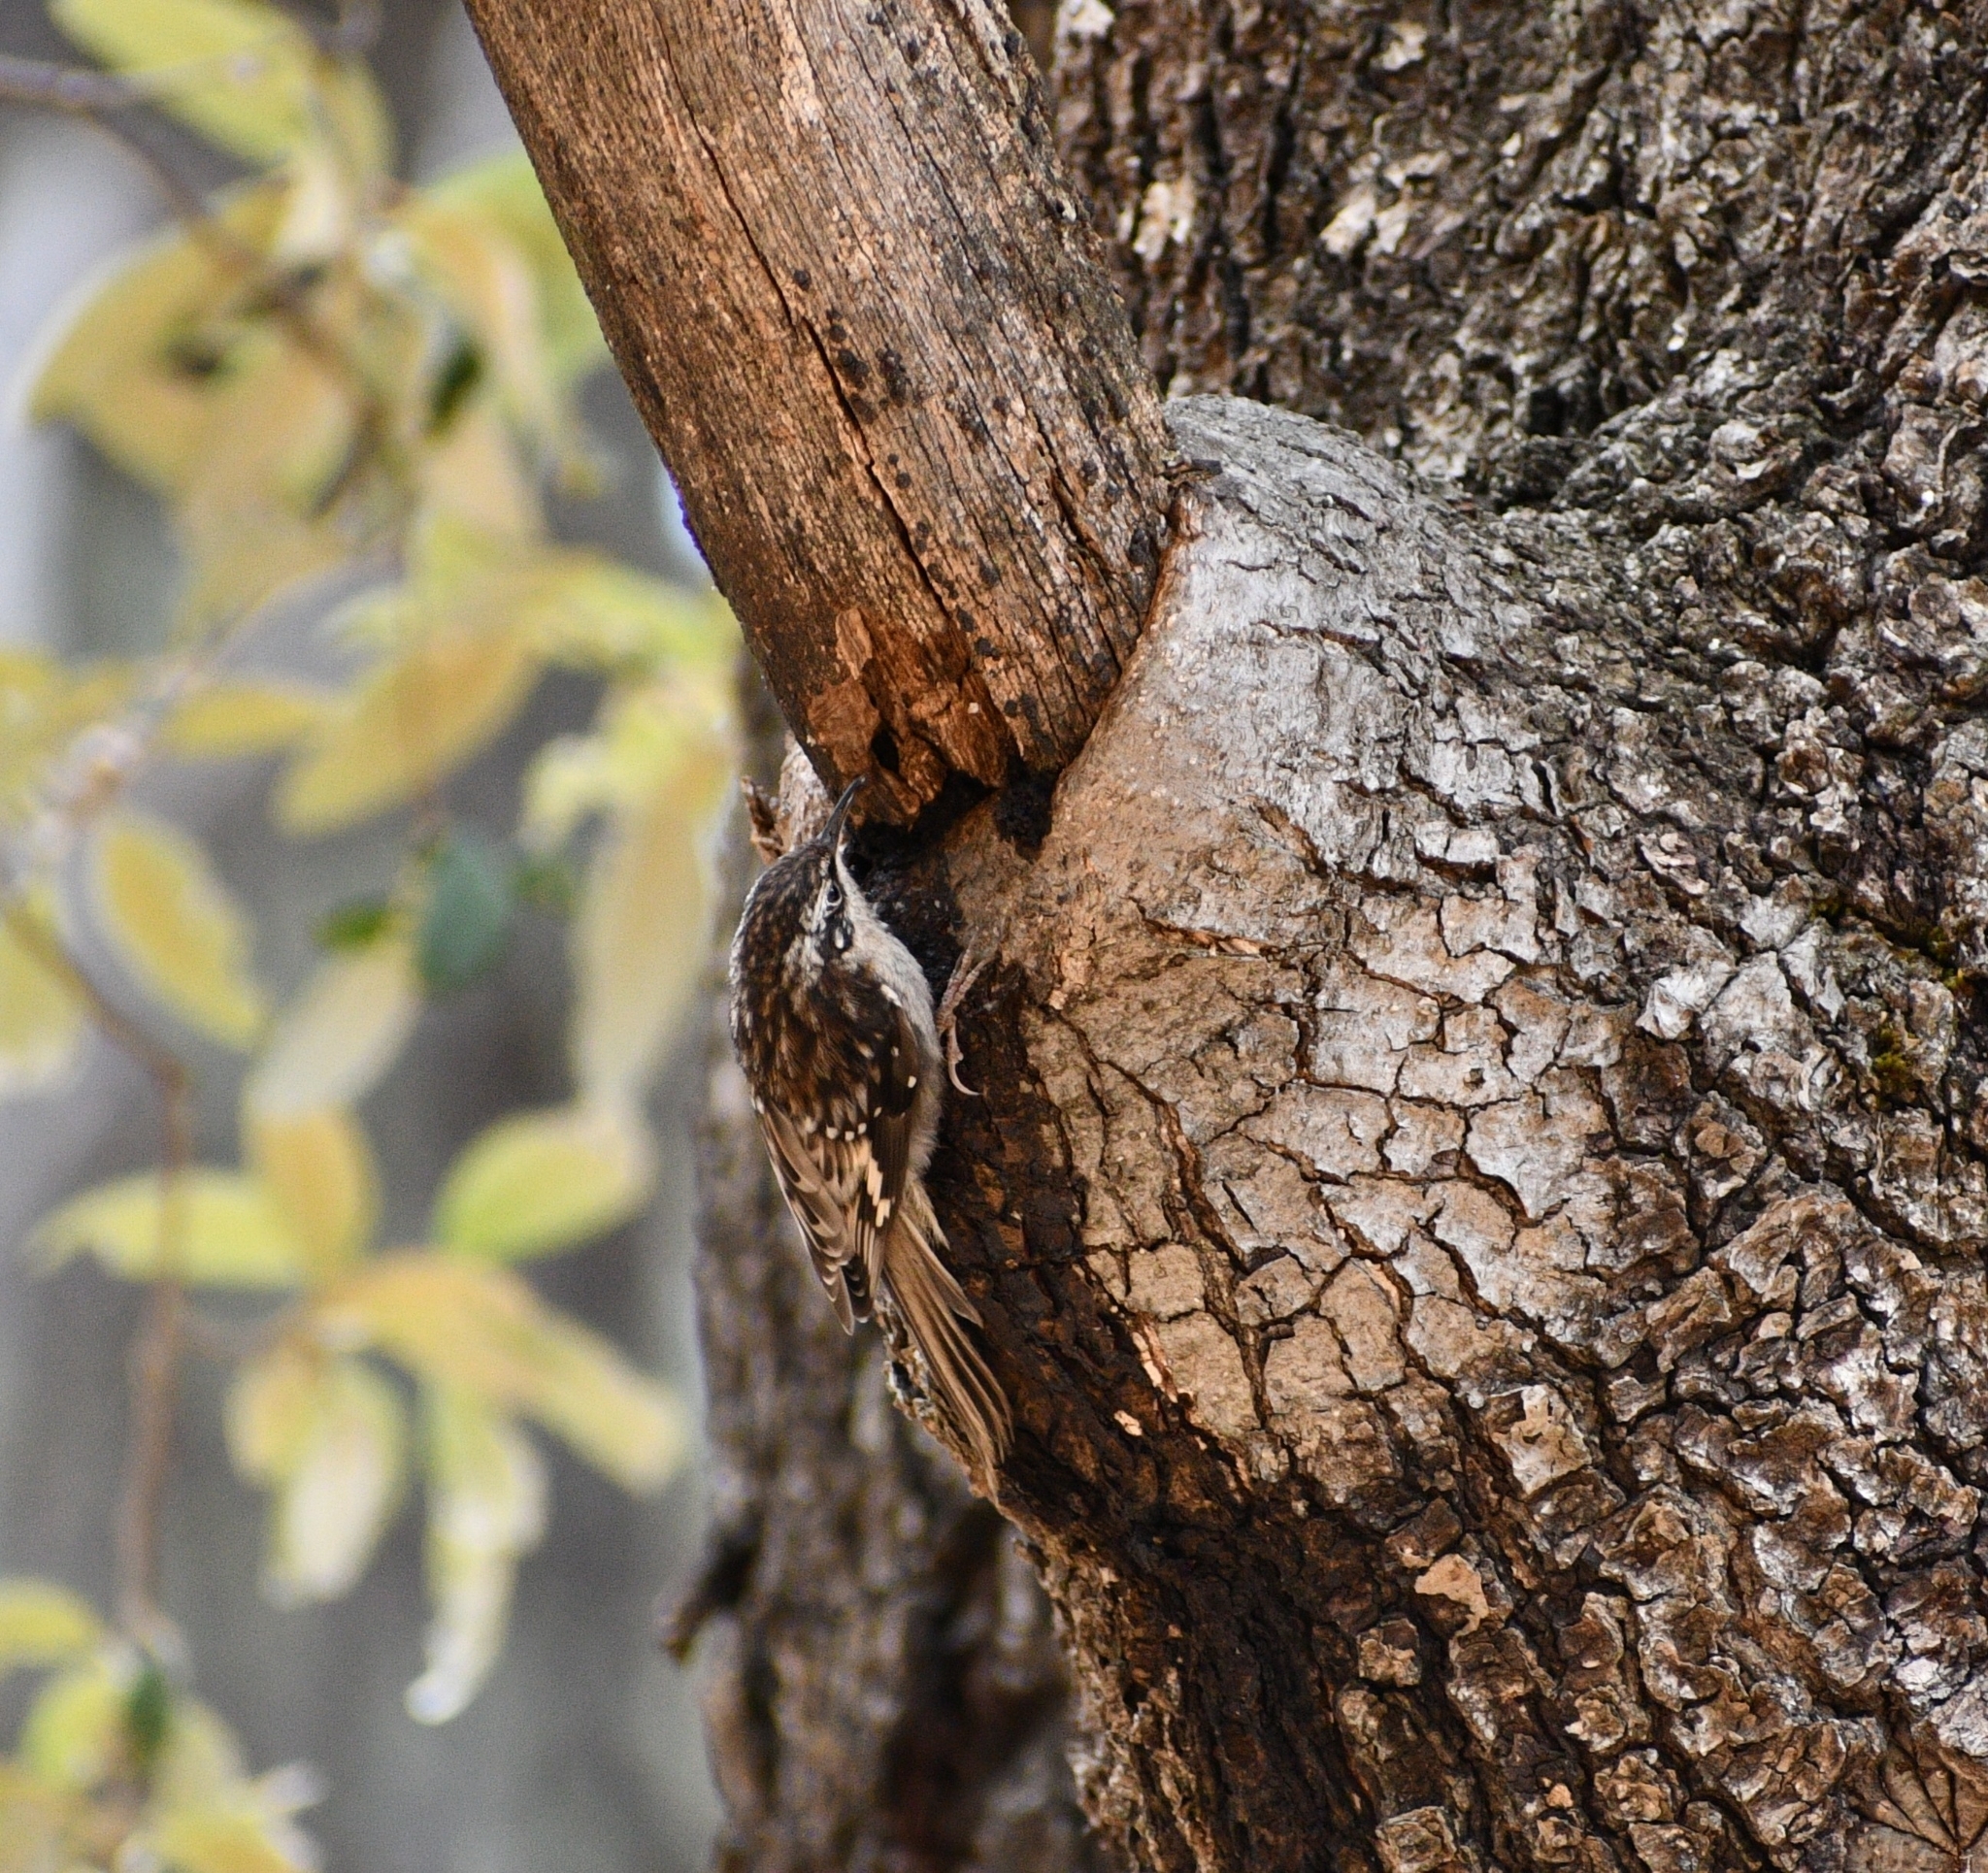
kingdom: Animalia
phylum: Chordata
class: Aves
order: Passeriformes
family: Certhiidae
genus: Certhia
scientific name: Certhia americana
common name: Brown creeper
